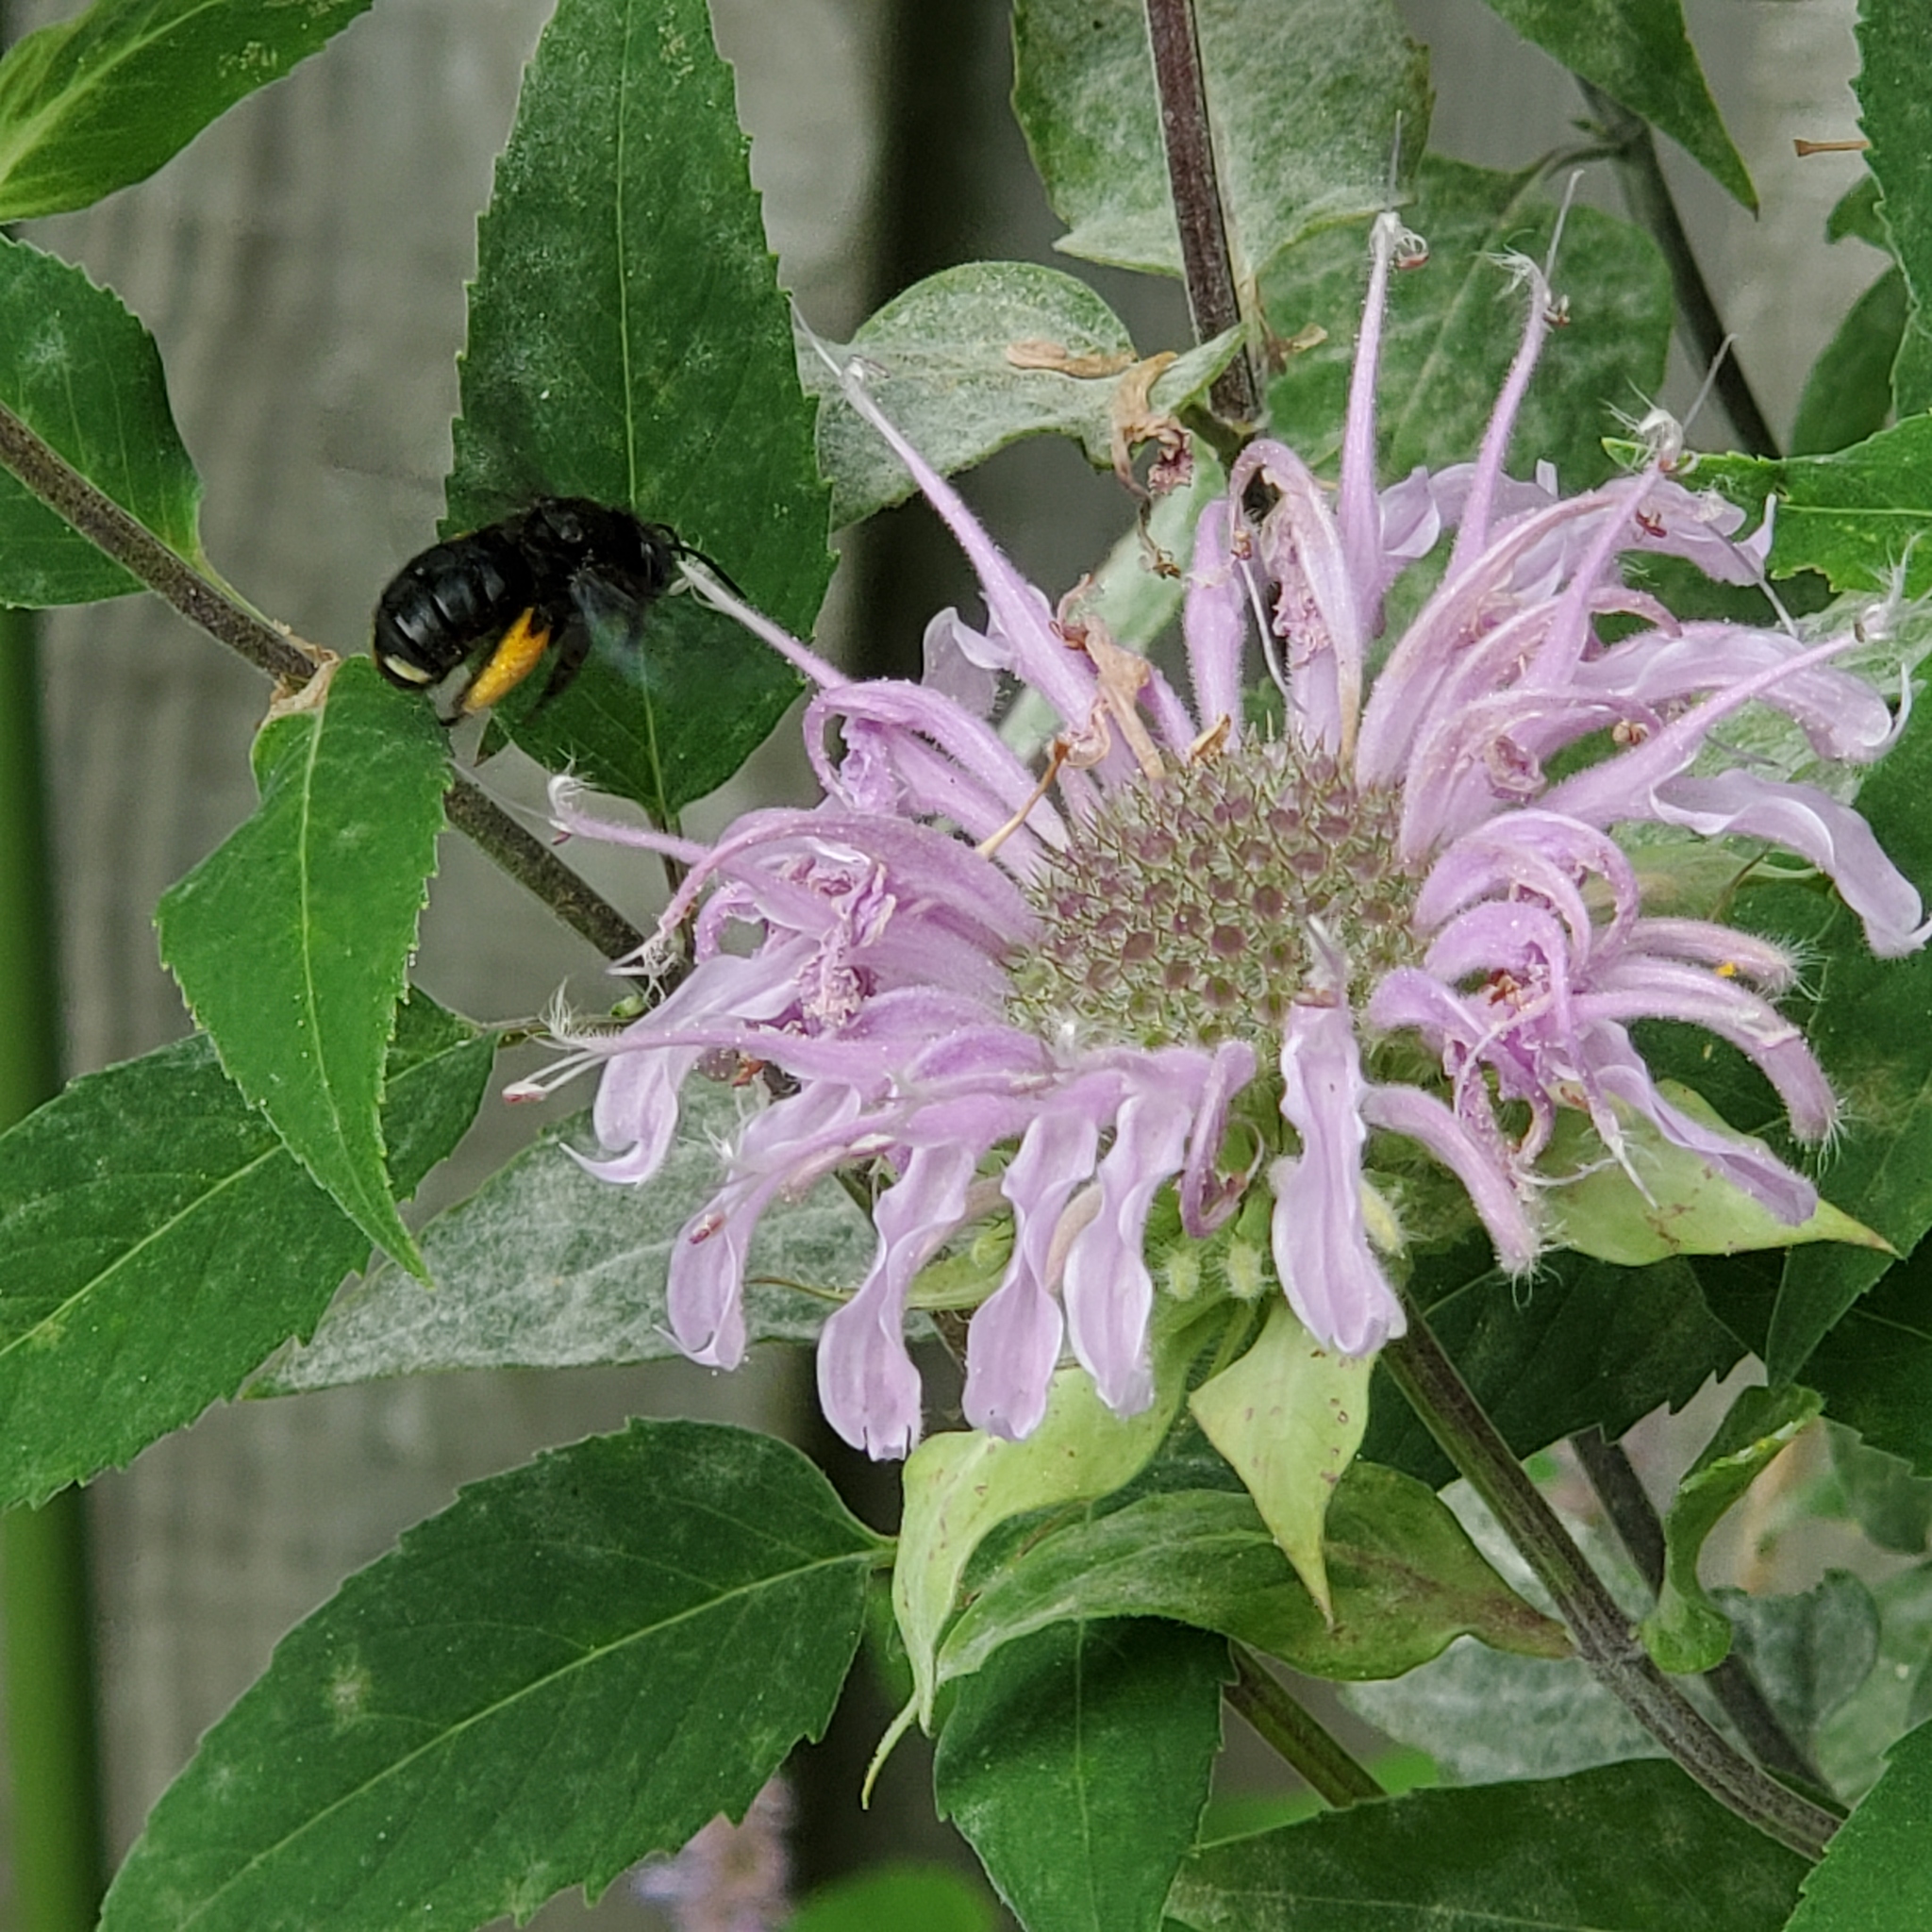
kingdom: Animalia
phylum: Arthropoda
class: Insecta
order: Hymenoptera
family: Apidae
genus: Melissodes
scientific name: Melissodes bimaculatus
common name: Two-spotted long-horned bee
